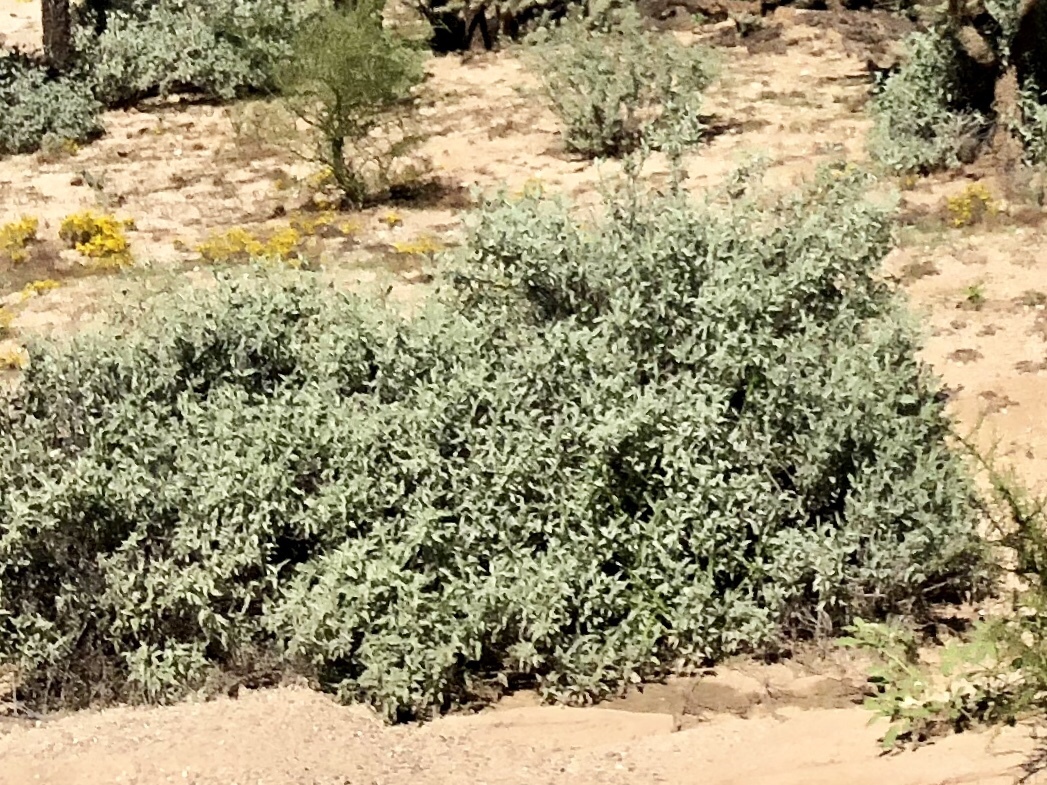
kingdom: Plantae
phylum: Tracheophyta
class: Magnoliopsida
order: Asterales
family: Asteraceae
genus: Ambrosia
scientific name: Ambrosia deltoidea
